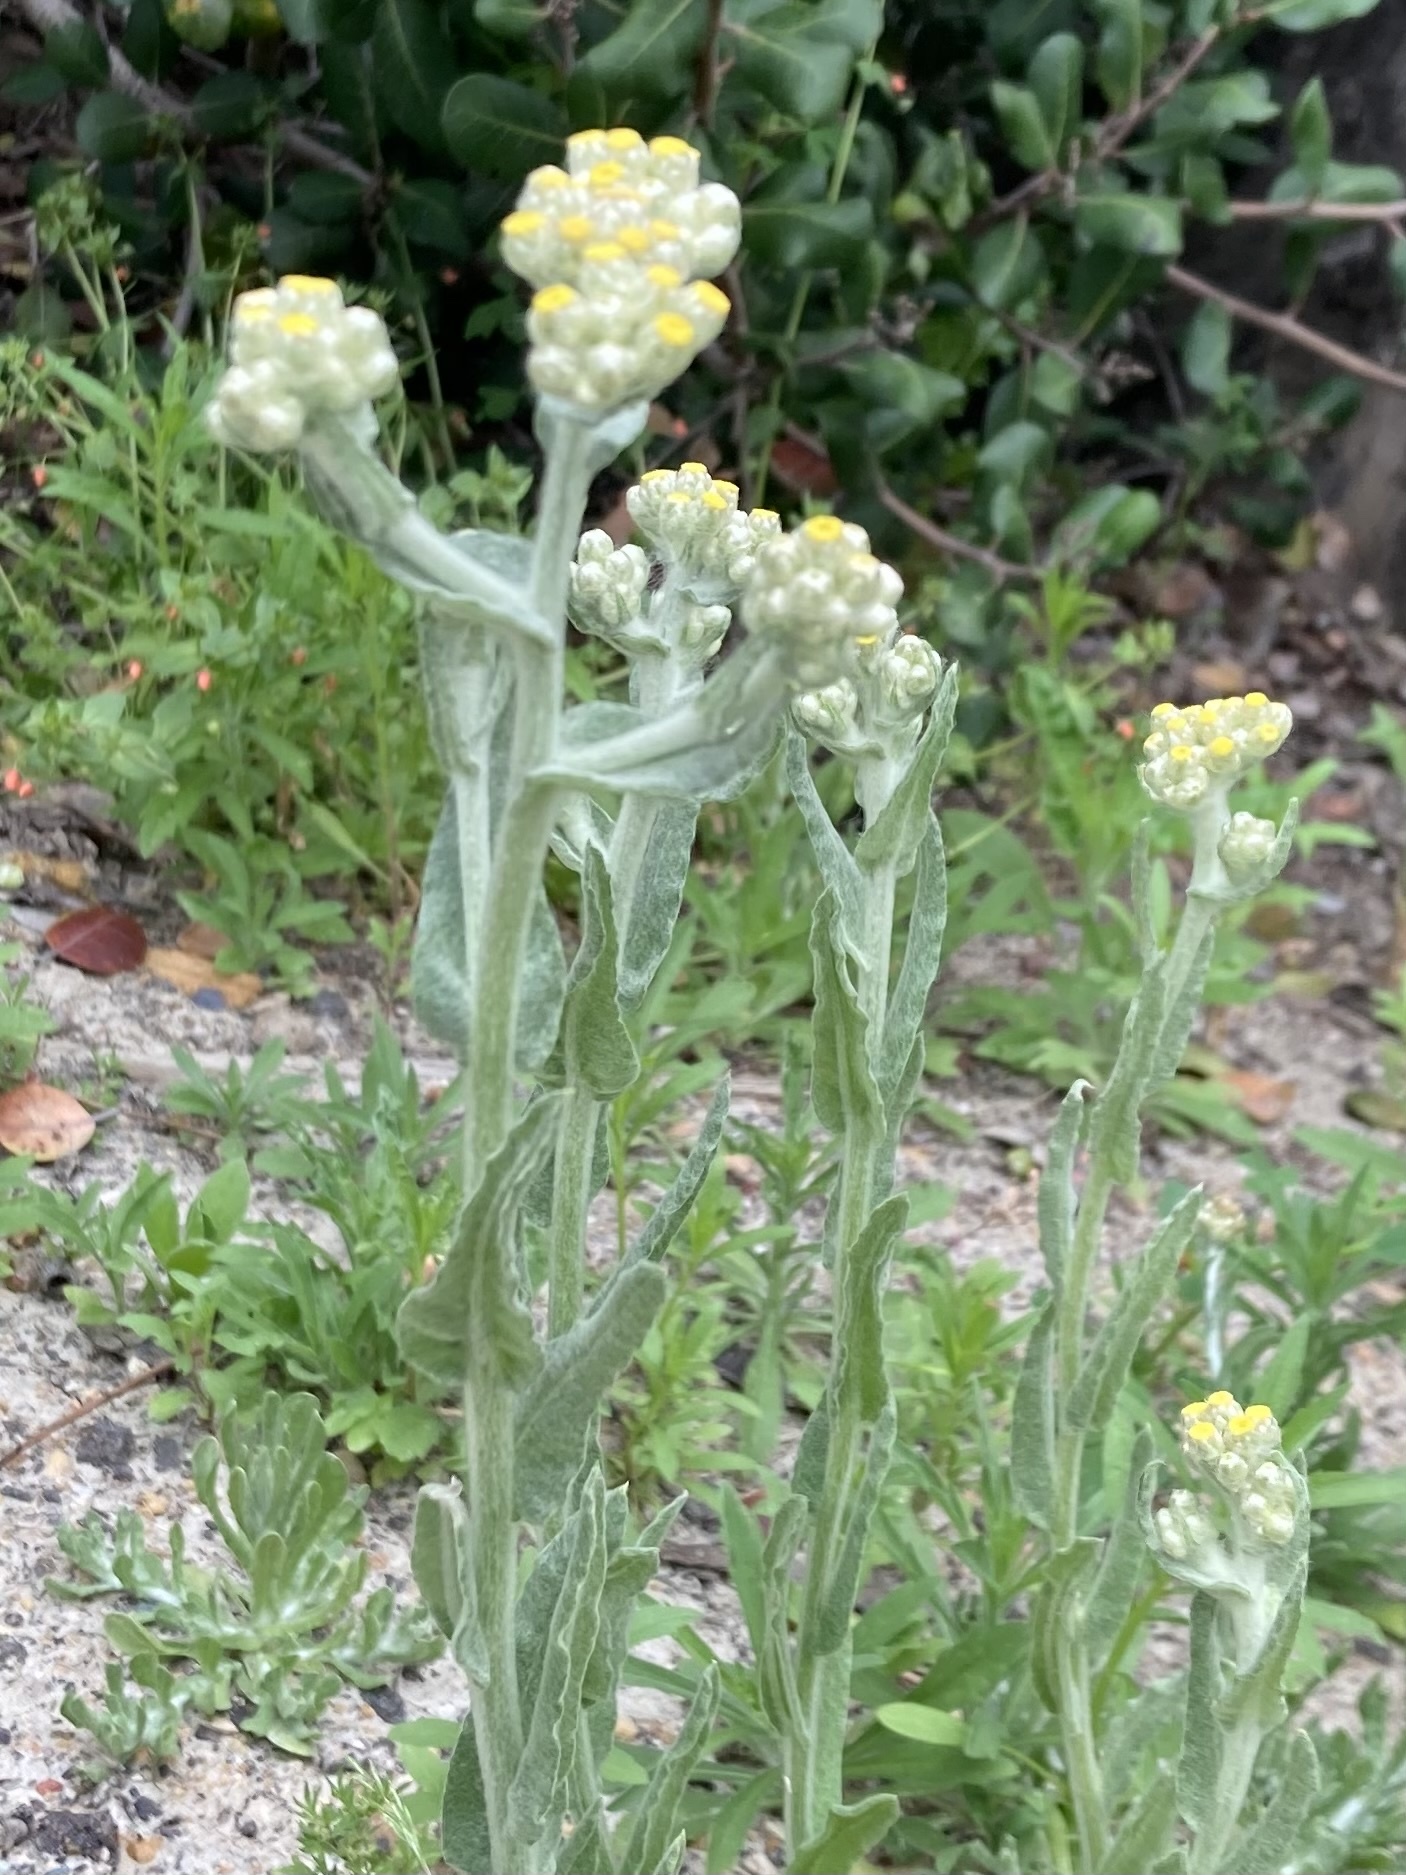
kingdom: Plantae
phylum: Tracheophyta
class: Magnoliopsida
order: Asterales
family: Asteraceae
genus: Pseudognaphalium
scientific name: Pseudognaphalium stramineum
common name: Cotton-batting-plant
